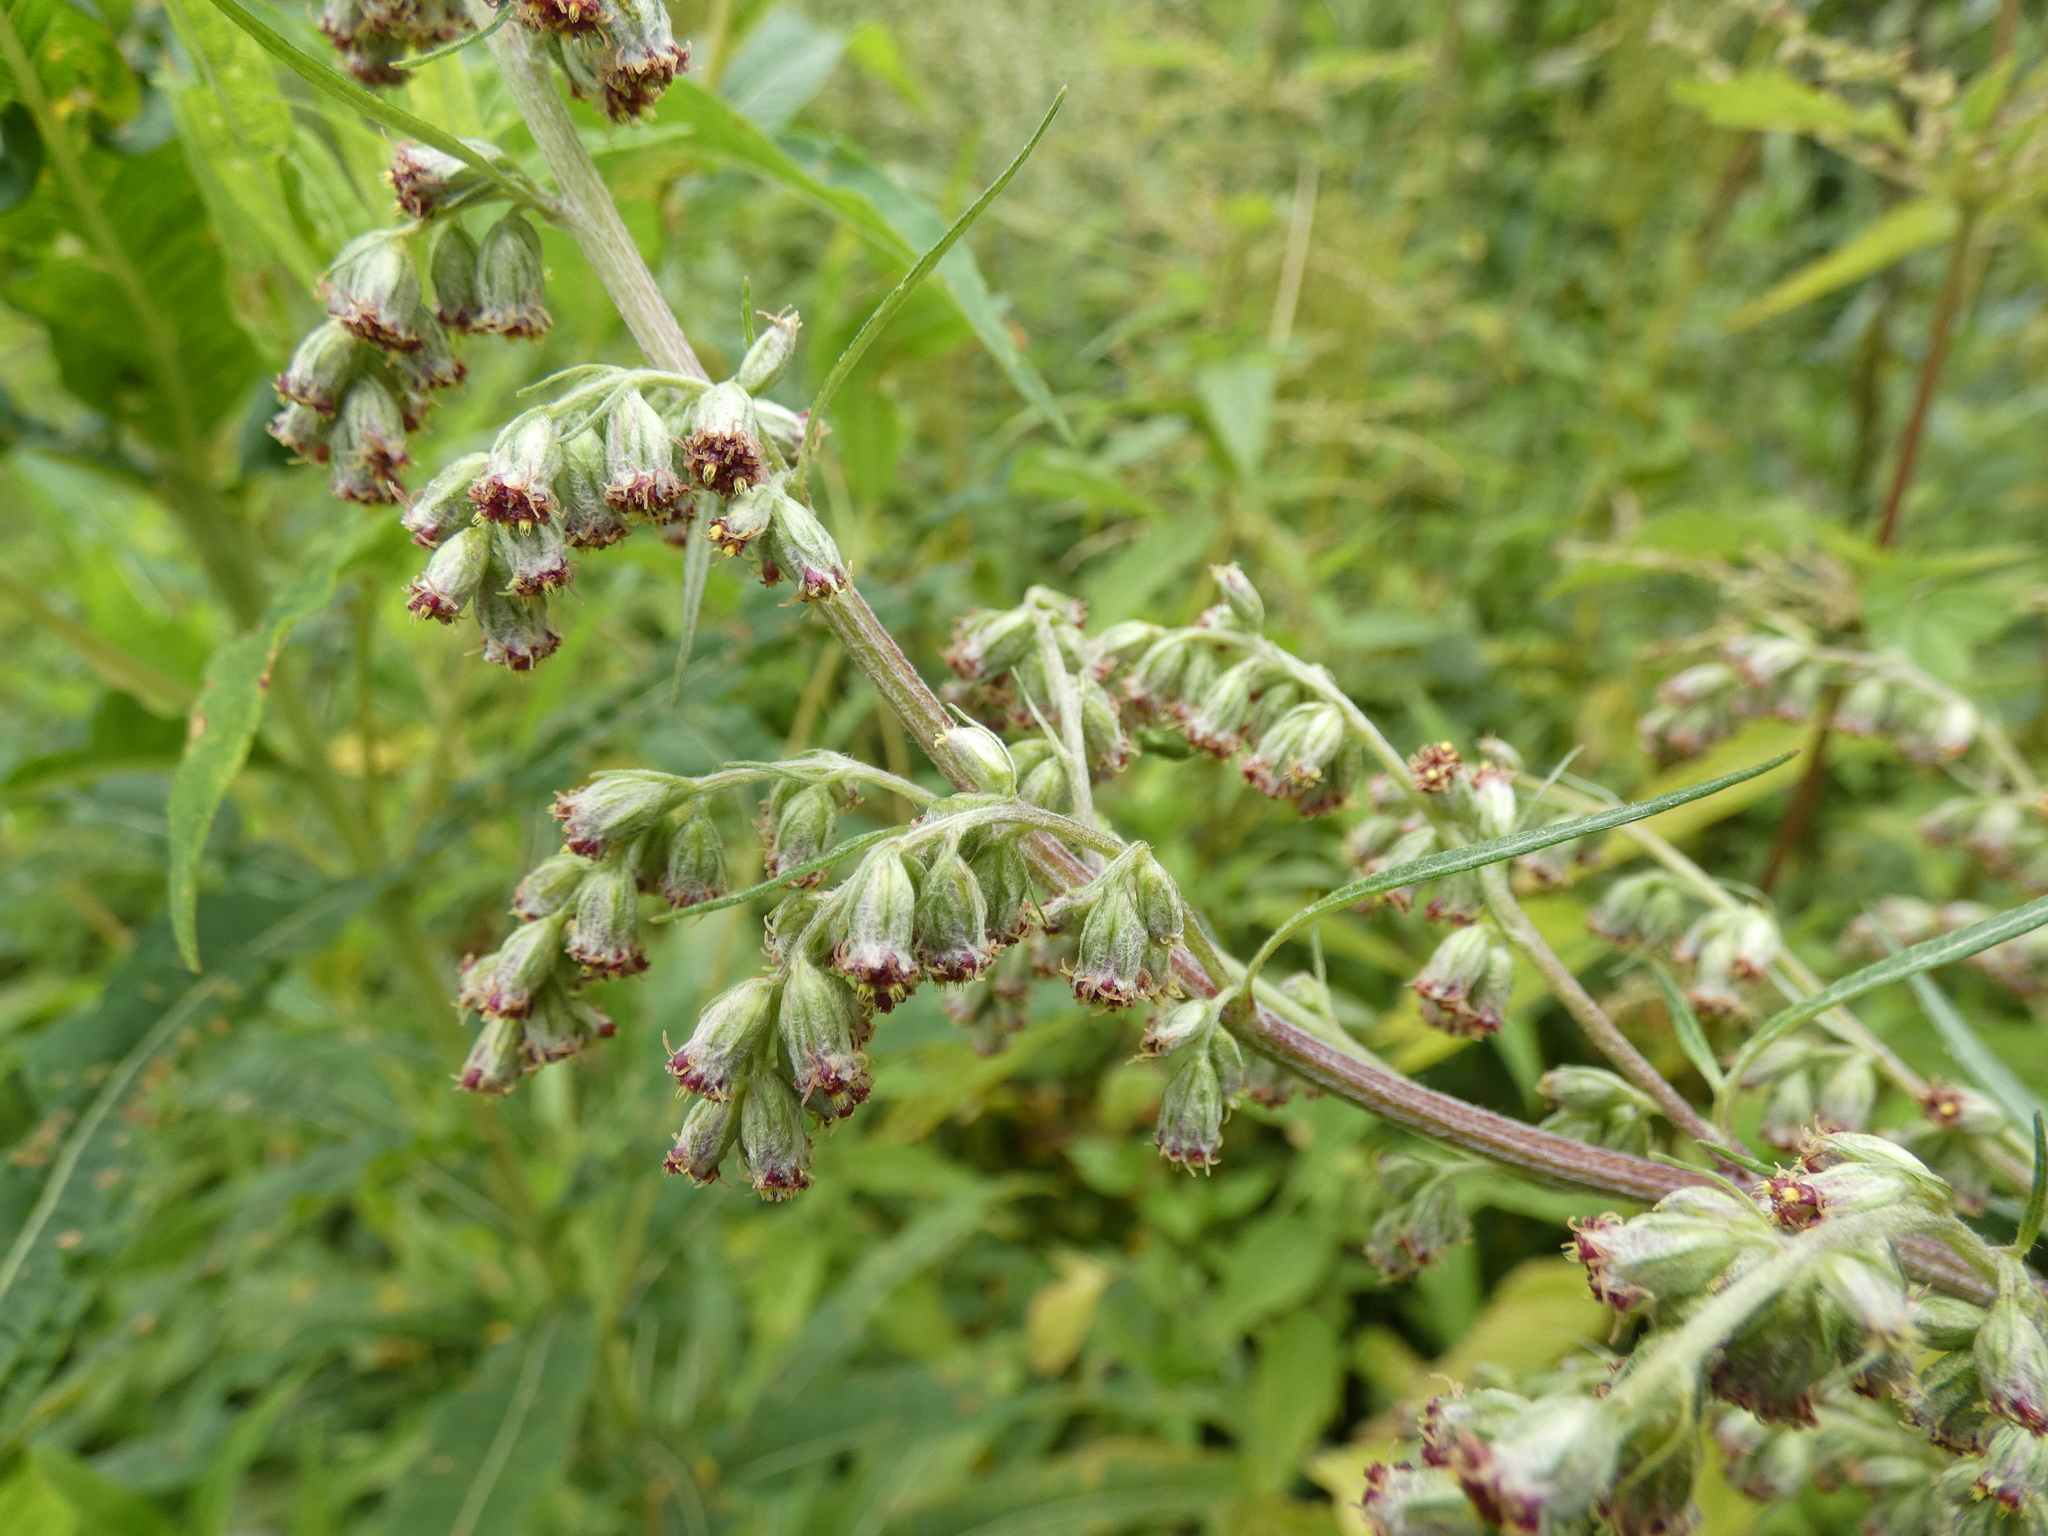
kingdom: Plantae
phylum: Tracheophyta
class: Magnoliopsida
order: Asterales
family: Asteraceae
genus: Artemisia
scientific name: Artemisia vulgaris
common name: Mugwort
